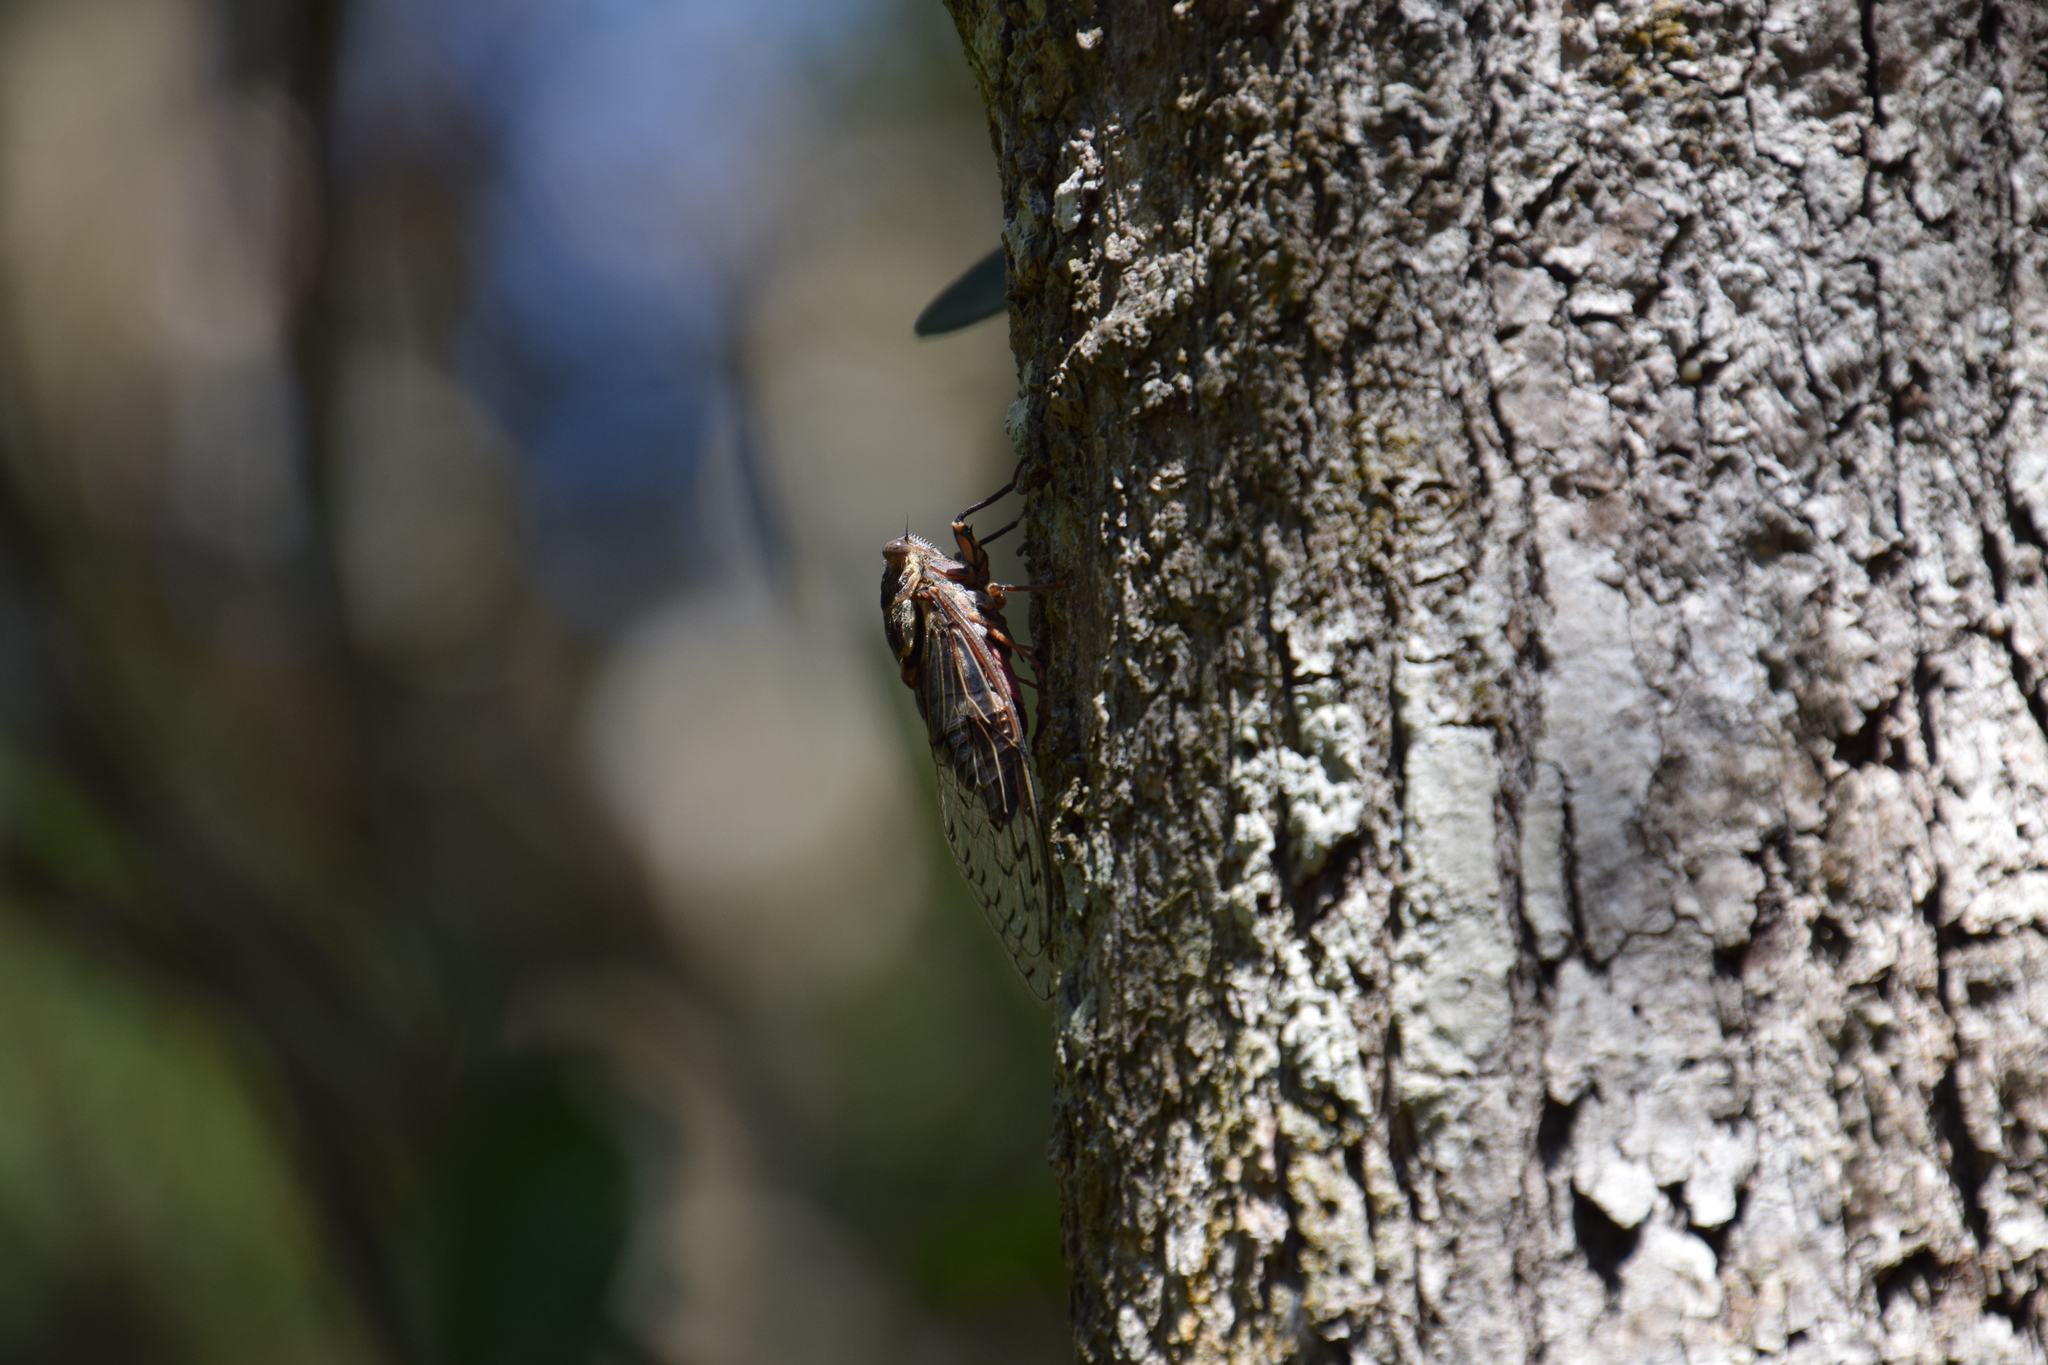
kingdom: Animalia
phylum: Arthropoda
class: Insecta
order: Hemiptera
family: Cicadidae
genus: Henicopsaltria
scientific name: Henicopsaltria eydouxii
